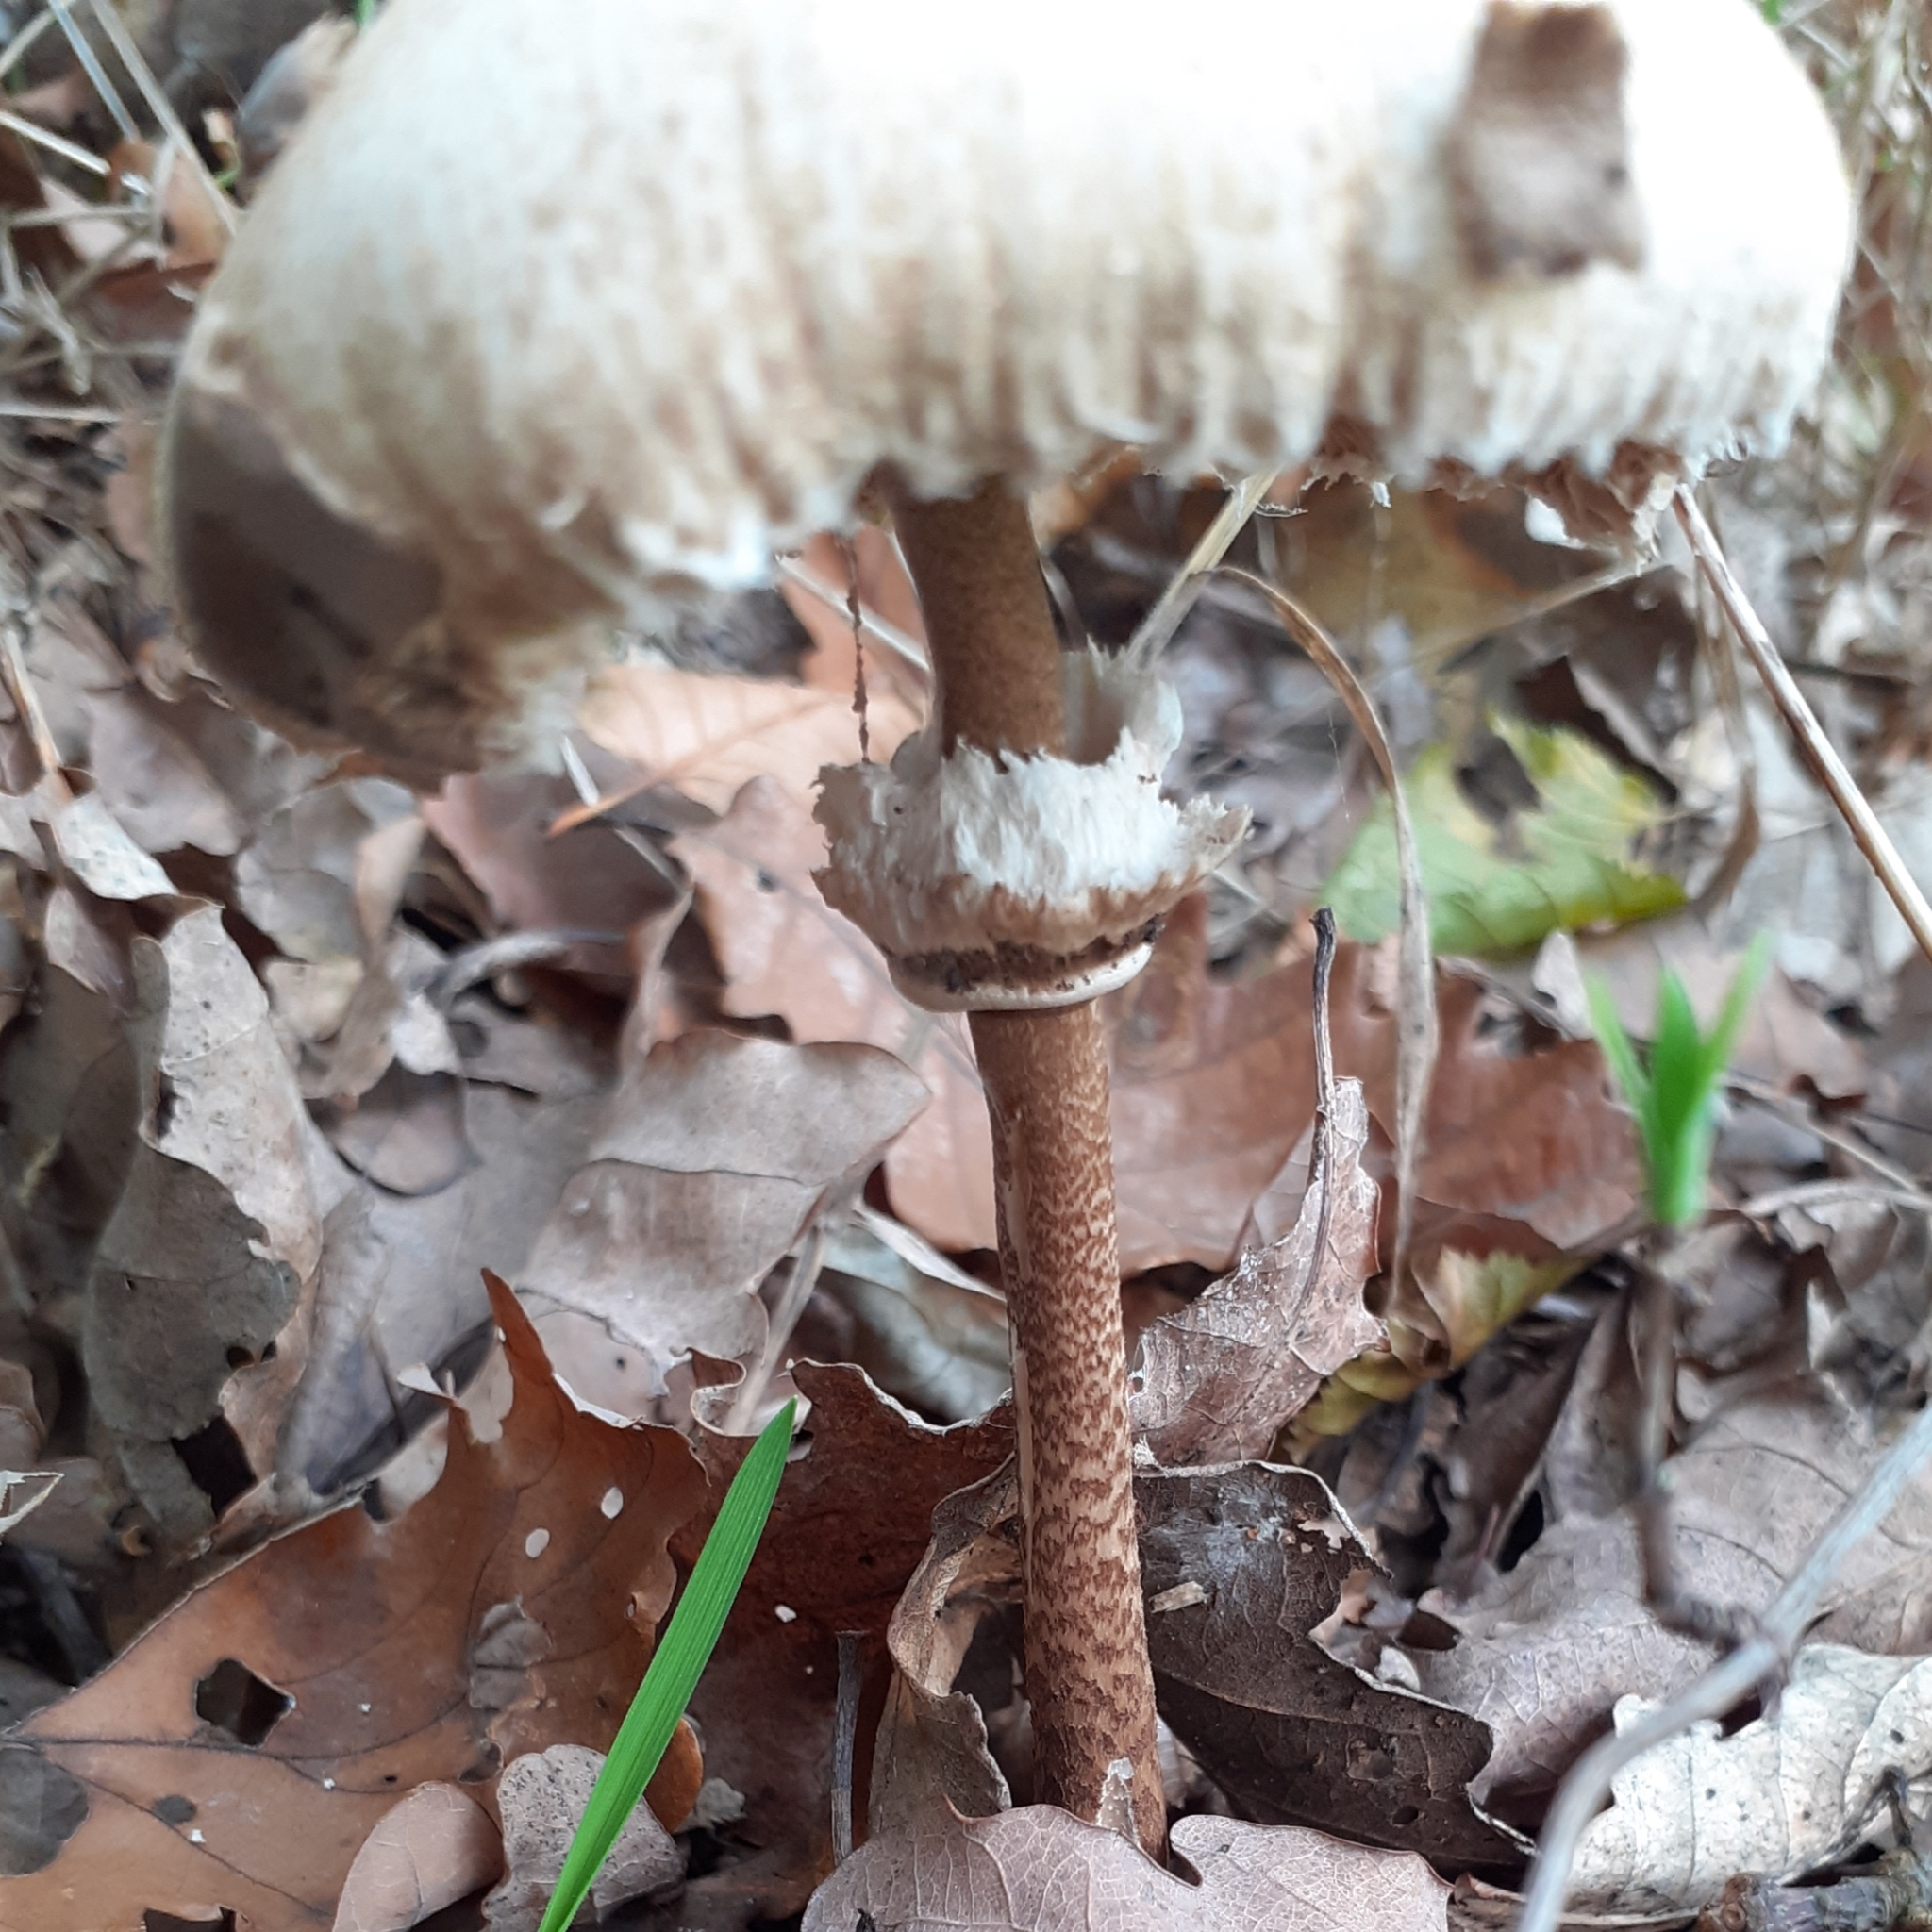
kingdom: Fungi
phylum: Basidiomycota
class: Agaricomycetes
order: Agaricales
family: Agaricaceae
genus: Macrolepiota
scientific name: Macrolepiota procera
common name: Parasol
